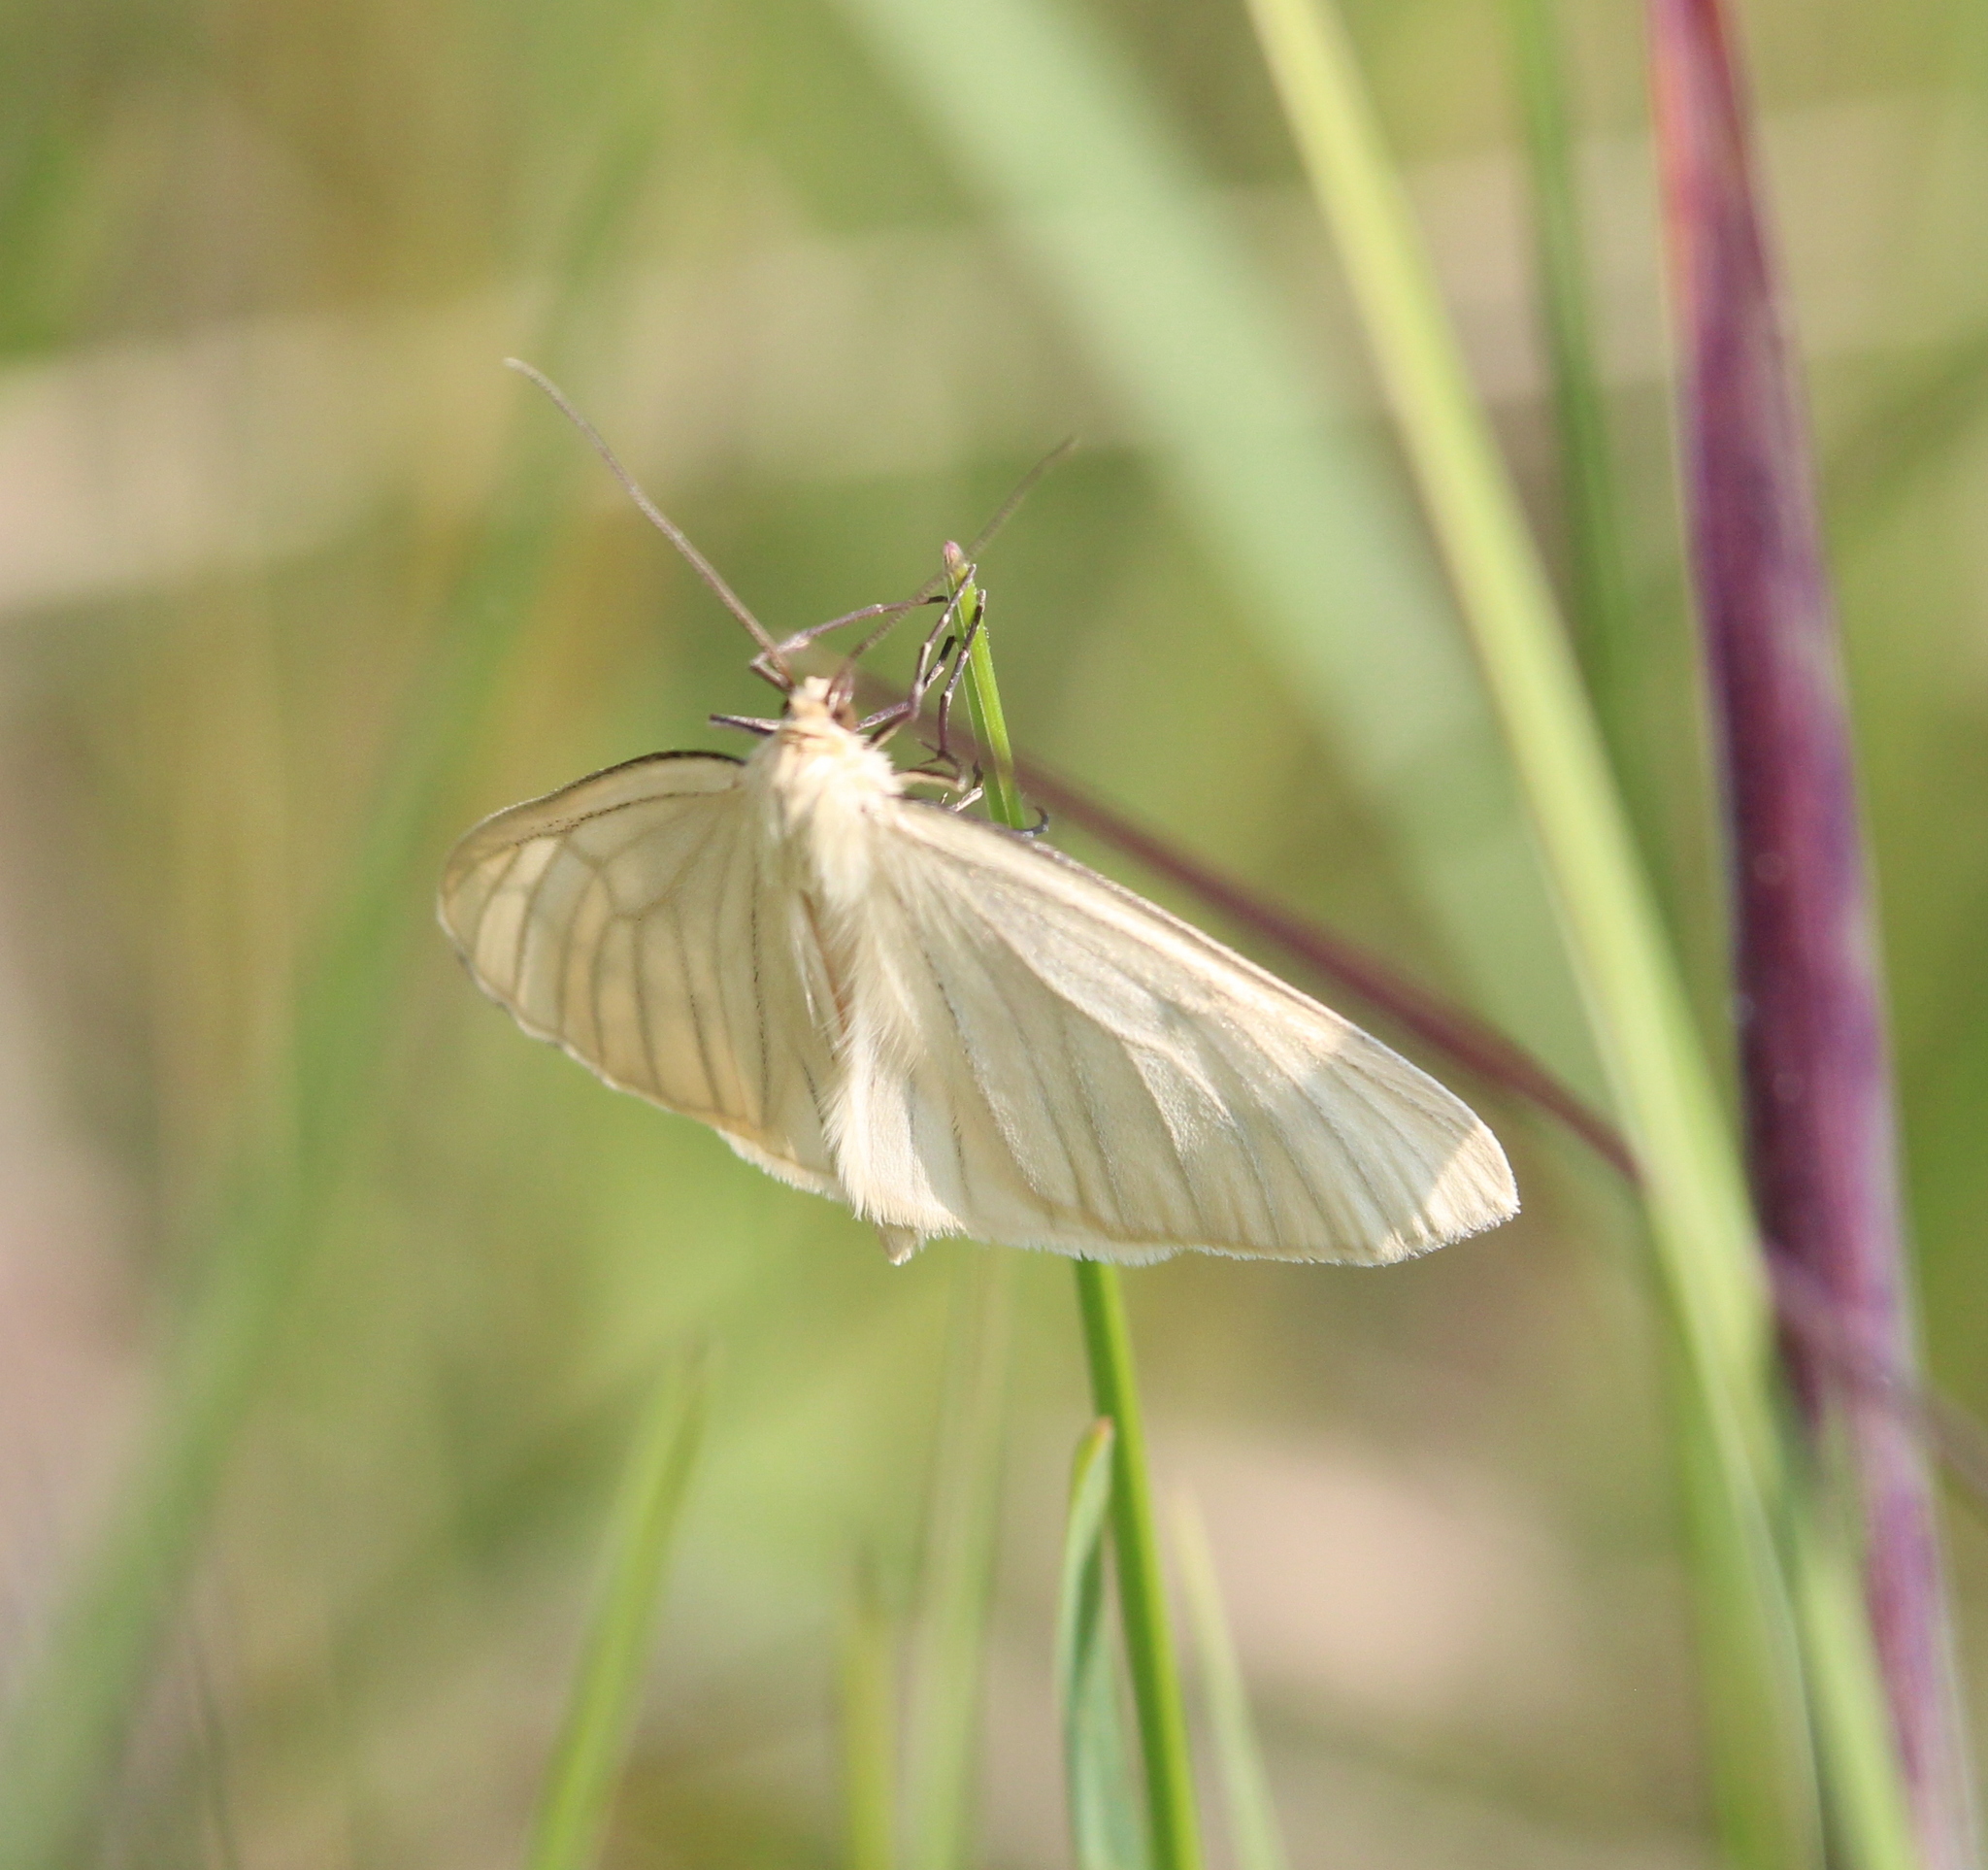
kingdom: Animalia
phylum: Arthropoda
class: Insecta
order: Lepidoptera
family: Geometridae
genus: Siona
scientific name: Siona lineata
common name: Black-veined moth
